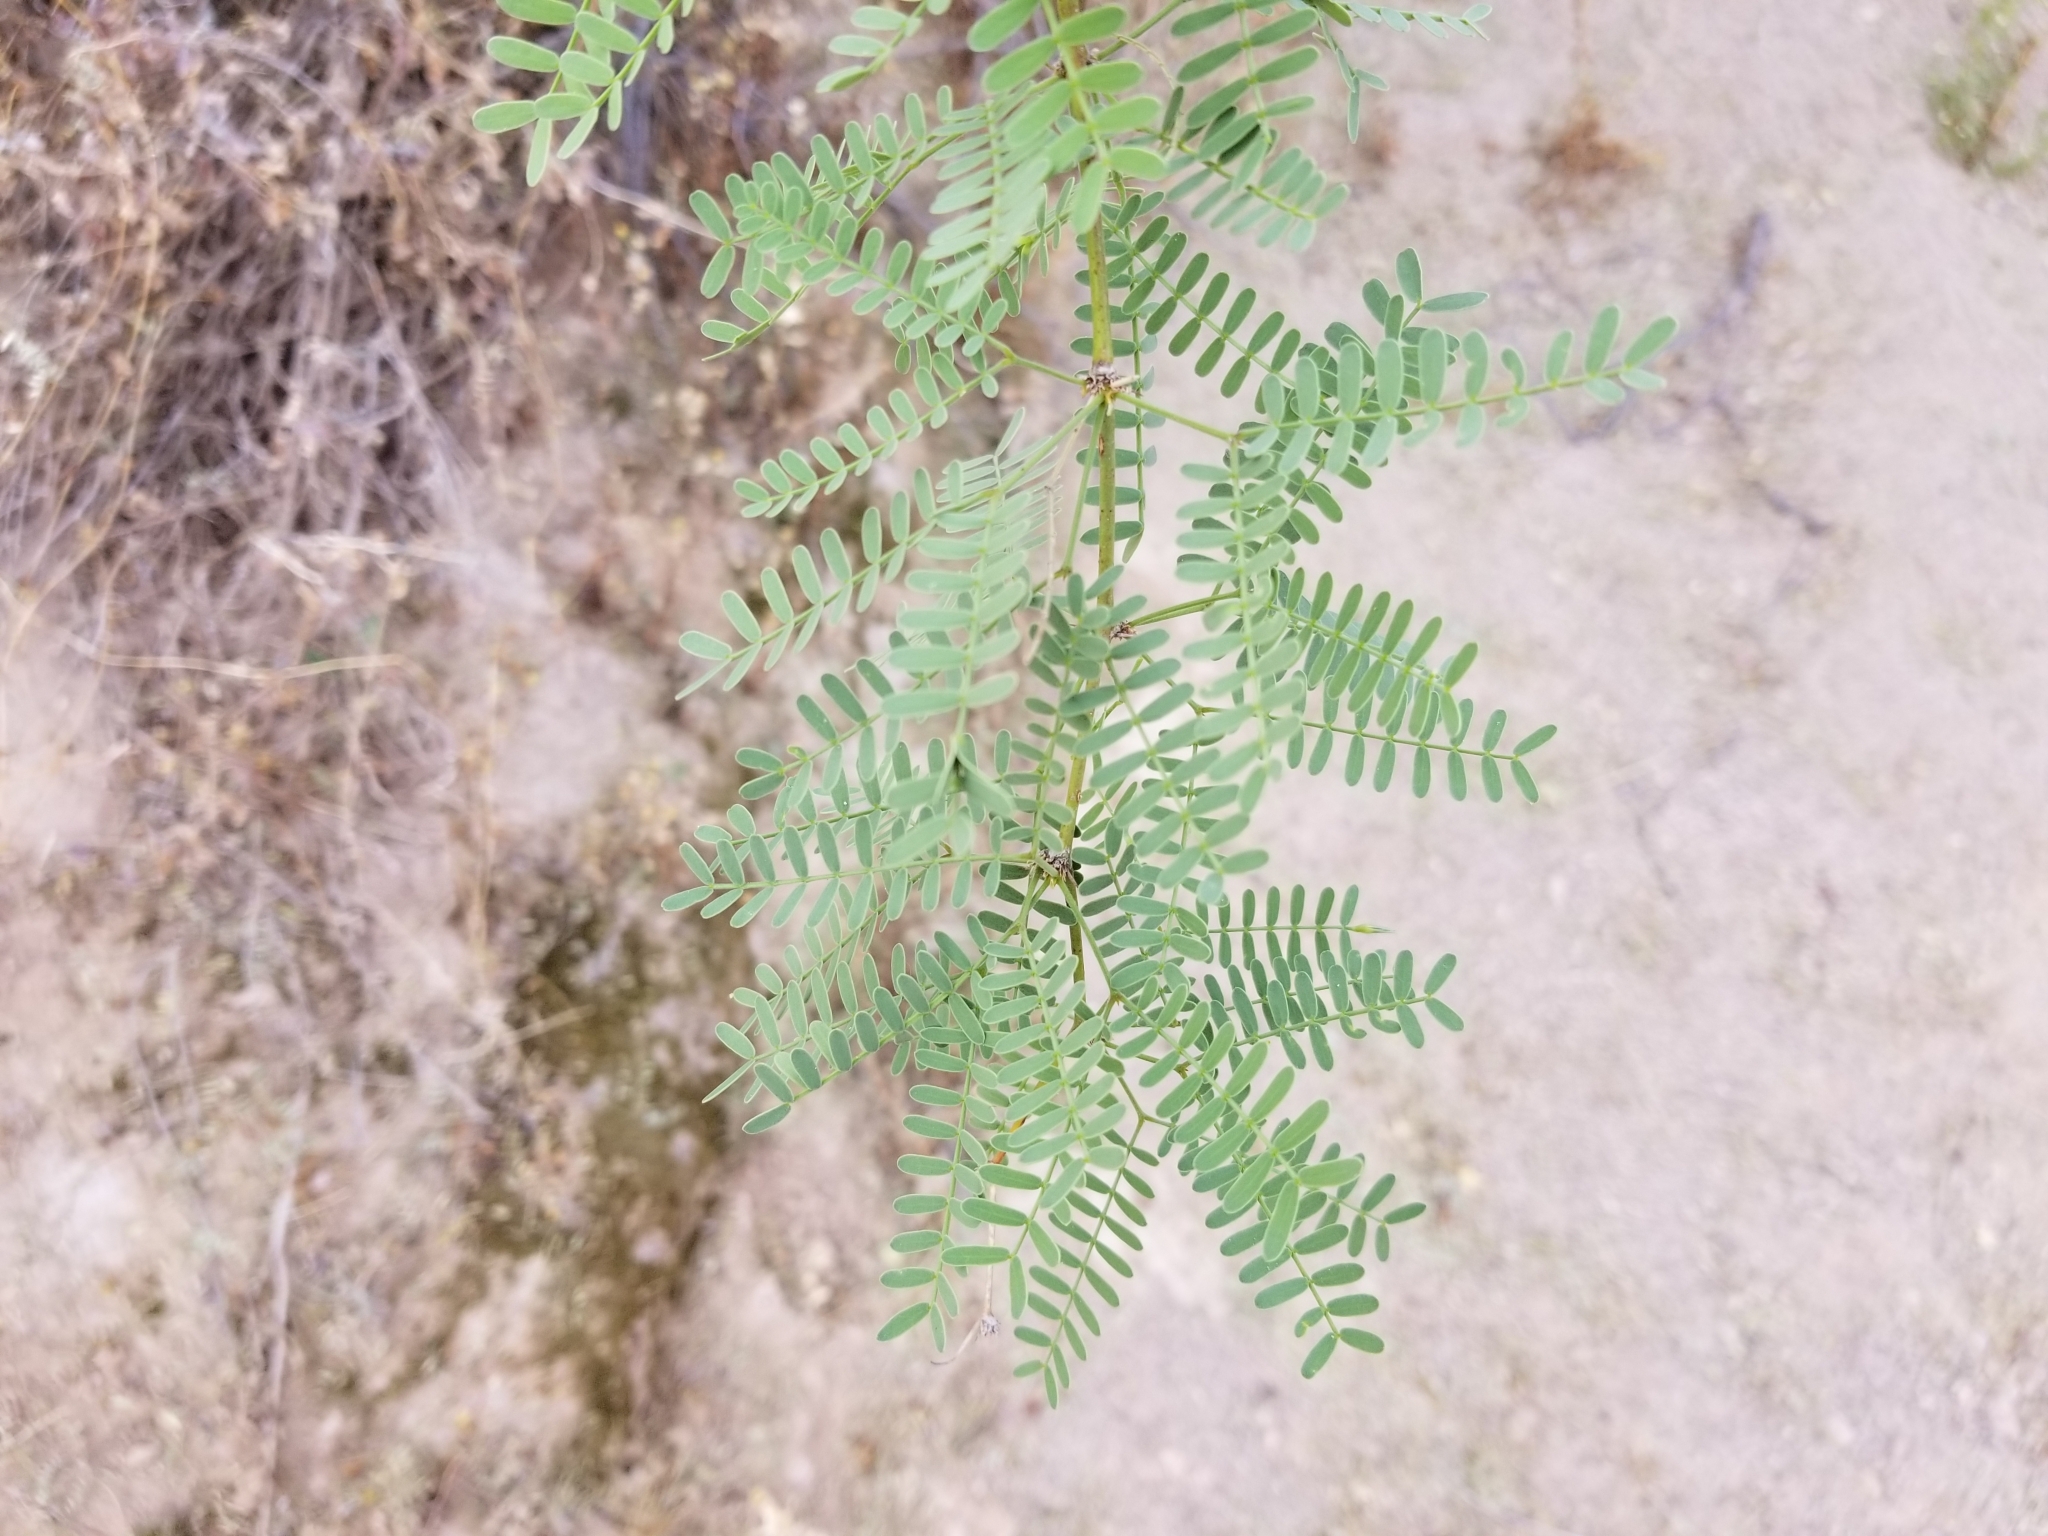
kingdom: Plantae
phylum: Tracheophyta
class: Magnoliopsida
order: Fabales
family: Fabaceae
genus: Prosopis
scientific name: Prosopis glandulosa
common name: Honey mesquite
